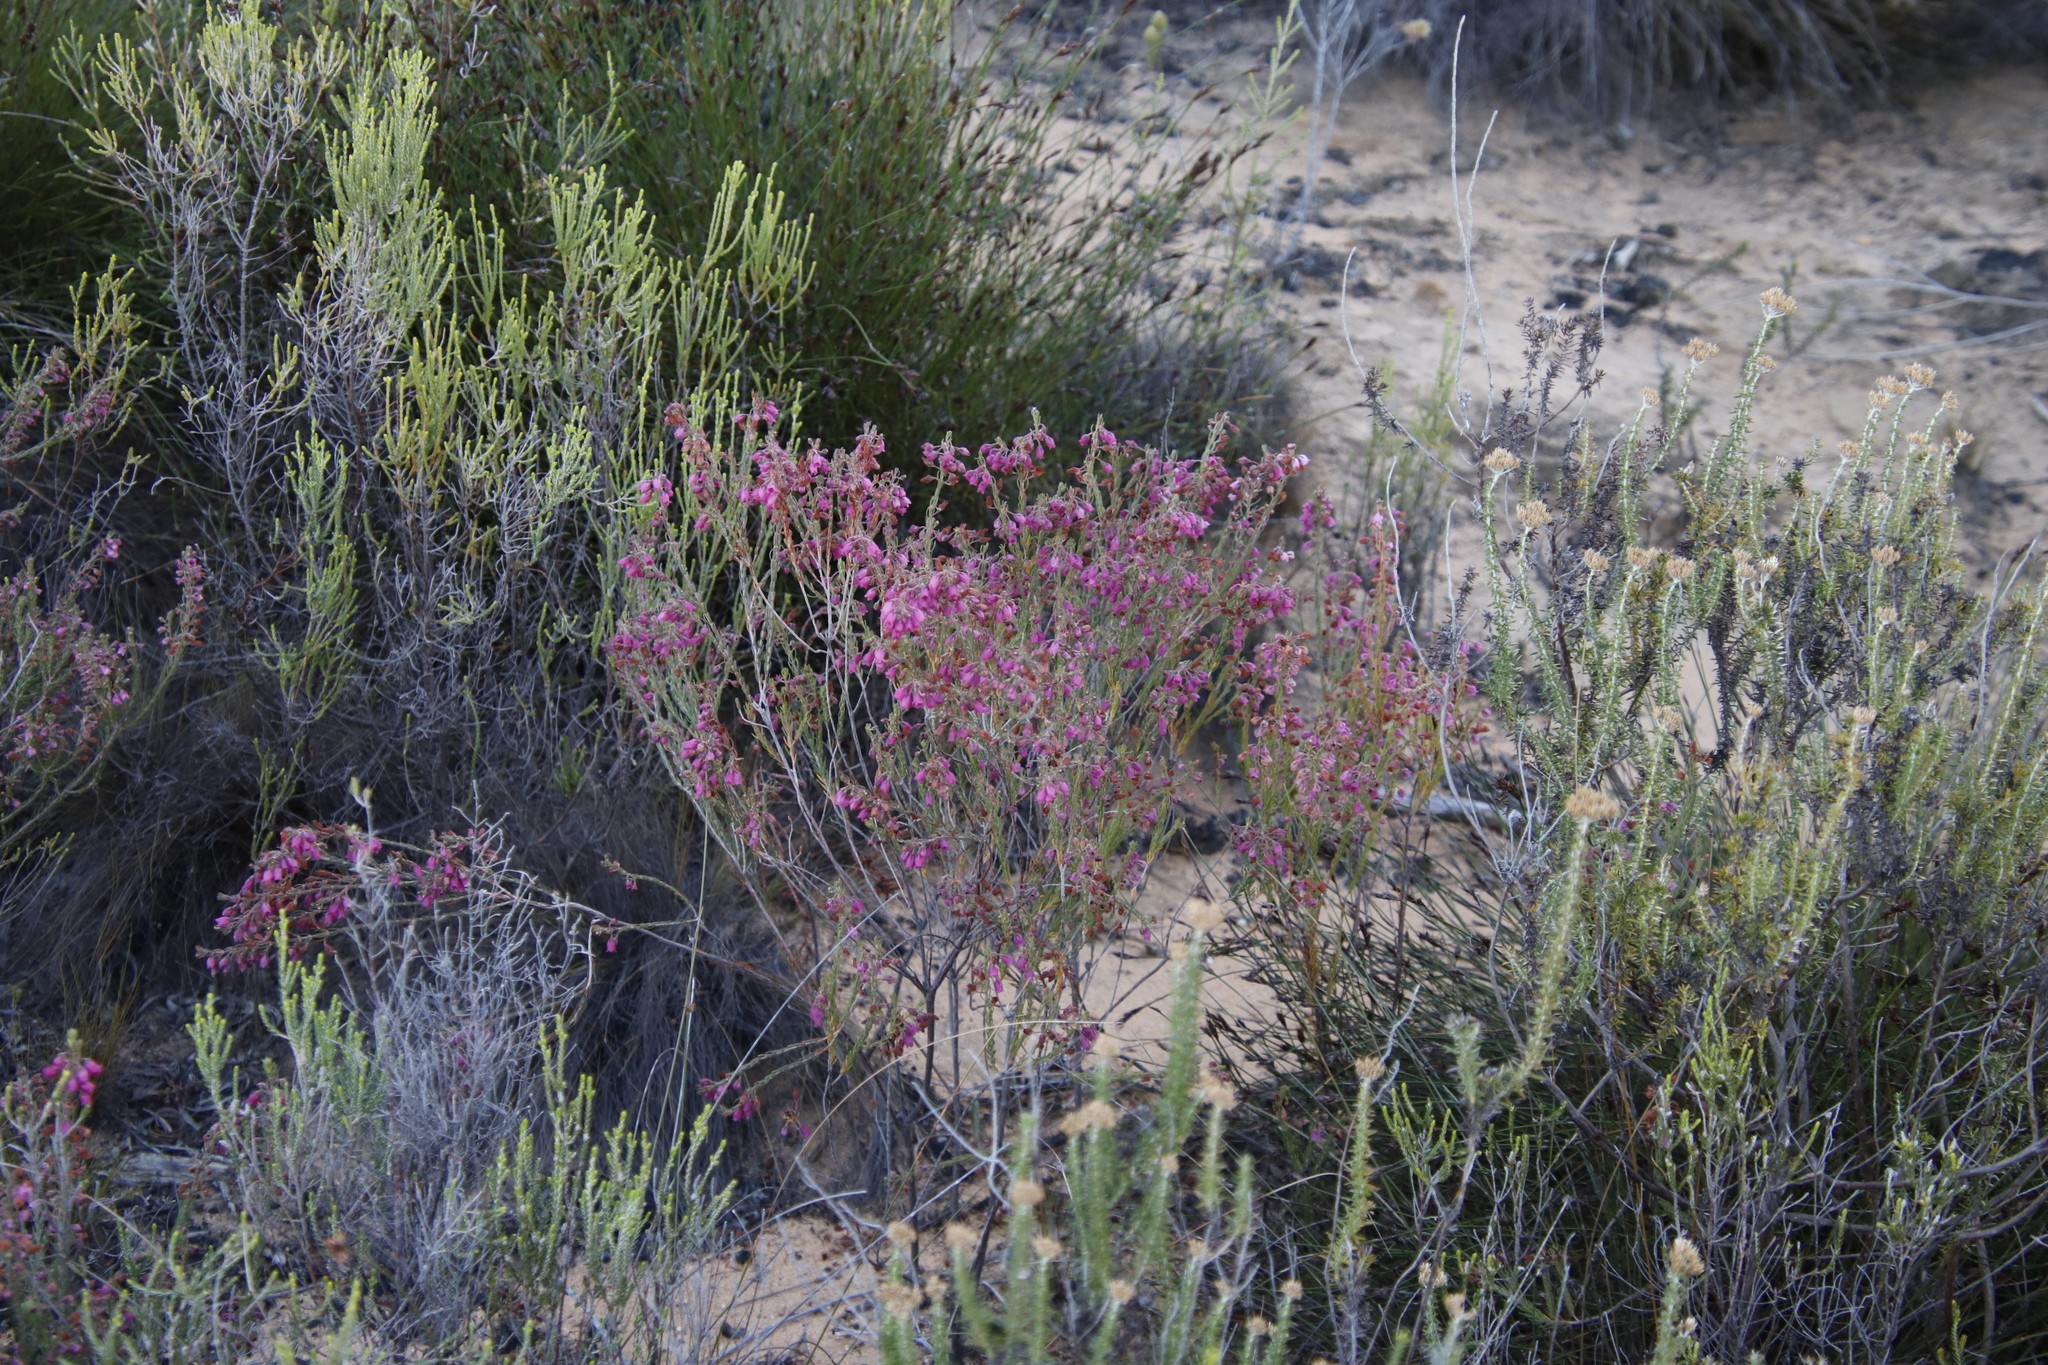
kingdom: Plantae
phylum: Tracheophyta
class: Magnoliopsida
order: Ericales
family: Ericaceae
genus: Erica
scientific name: Erica viscaria
